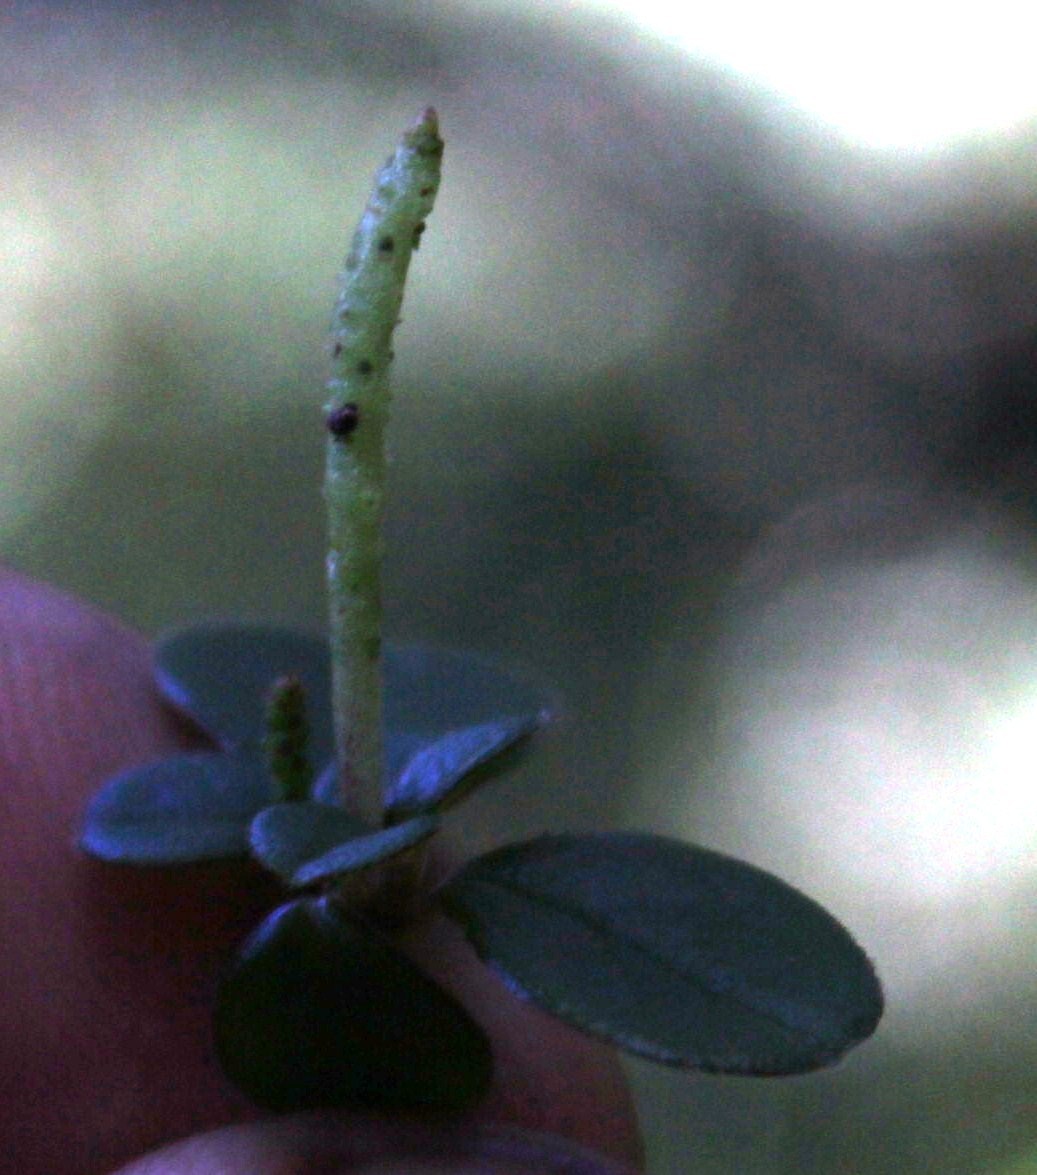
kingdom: Plantae
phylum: Tracheophyta
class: Magnoliopsida
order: Piperales
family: Piperaceae
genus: Peperomia
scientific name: Peperomia retusa
